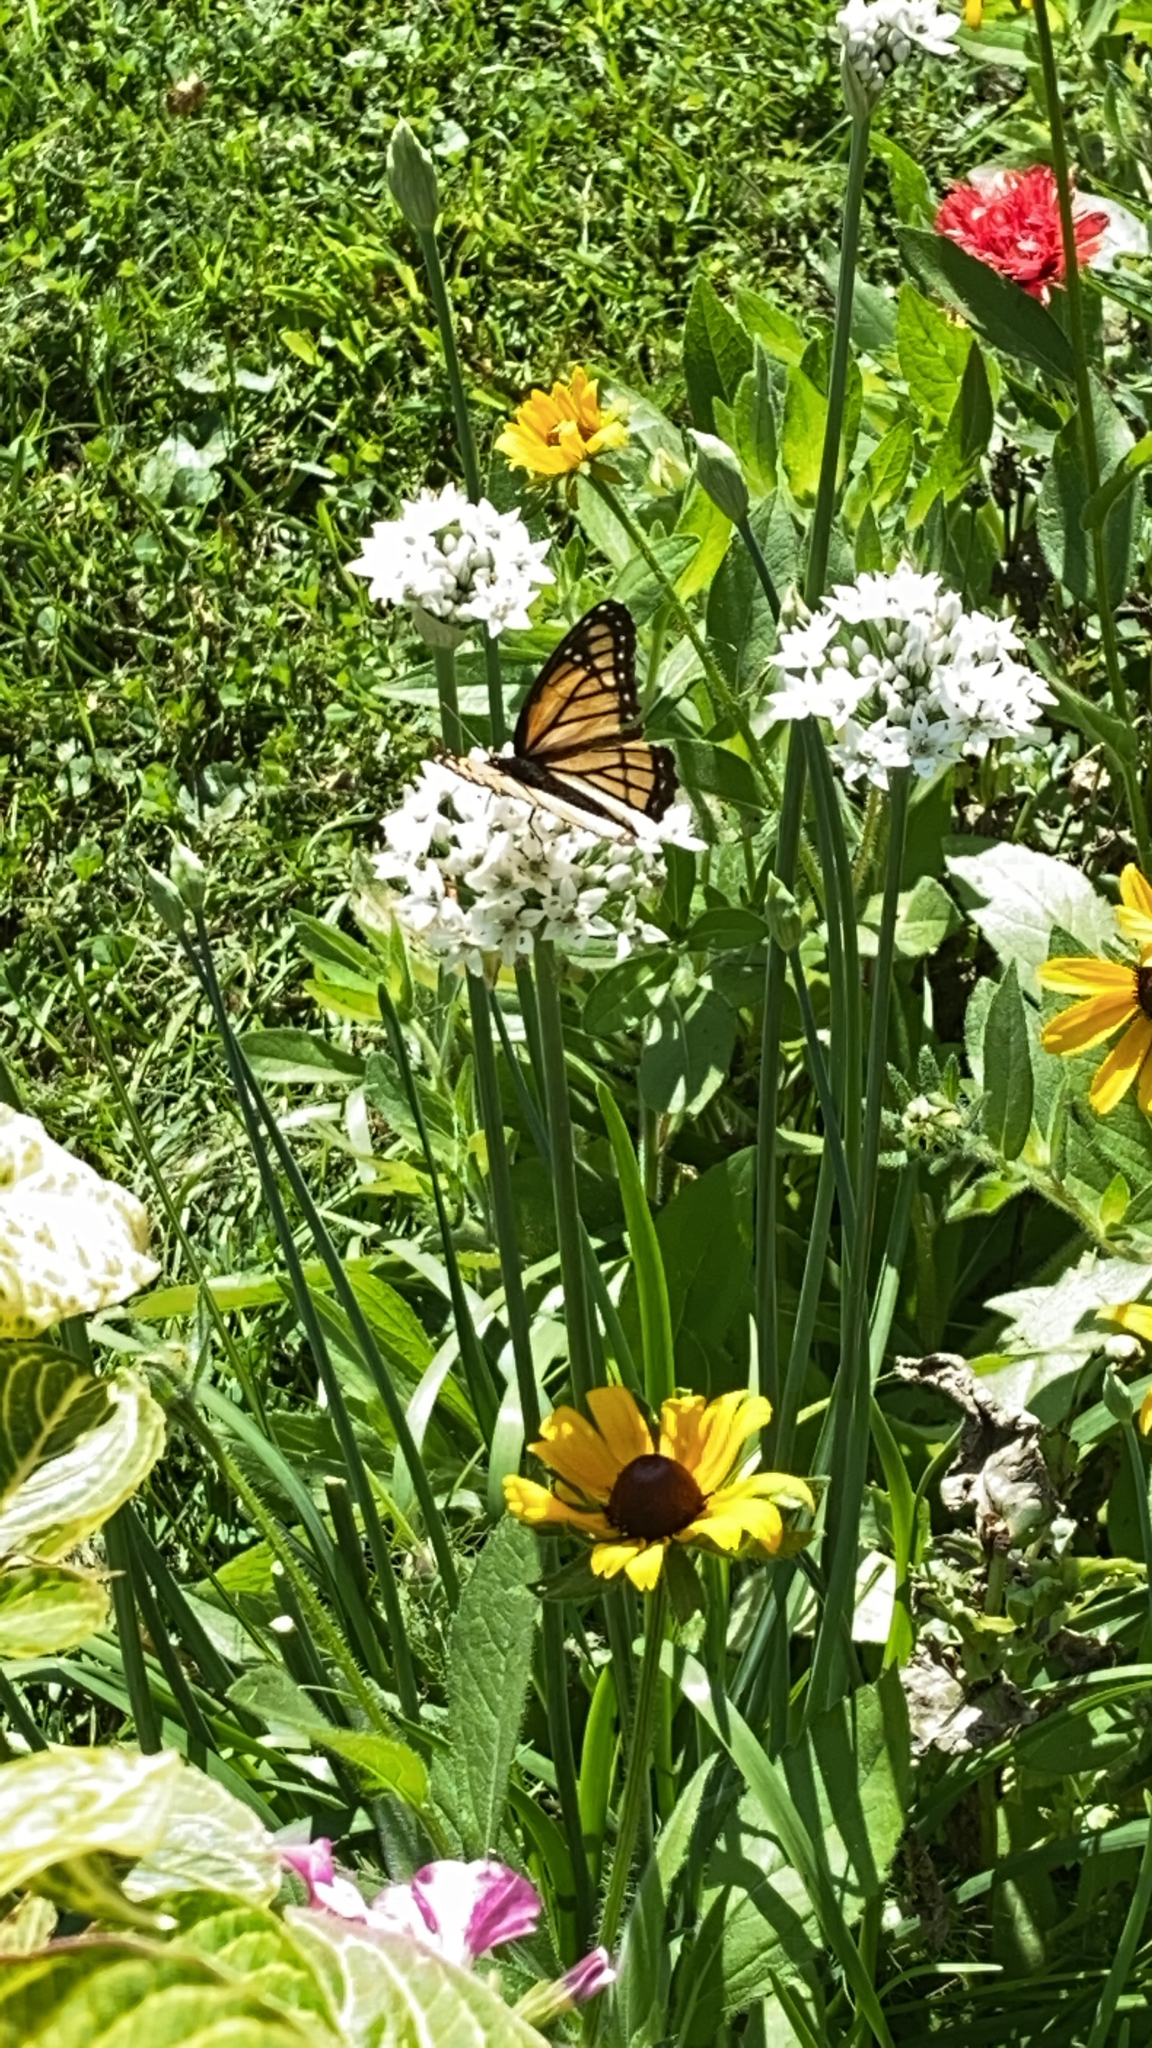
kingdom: Animalia
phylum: Arthropoda
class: Insecta
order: Lepidoptera
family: Nymphalidae
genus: Limenitis
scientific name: Limenitis archippus
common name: Viceroy
